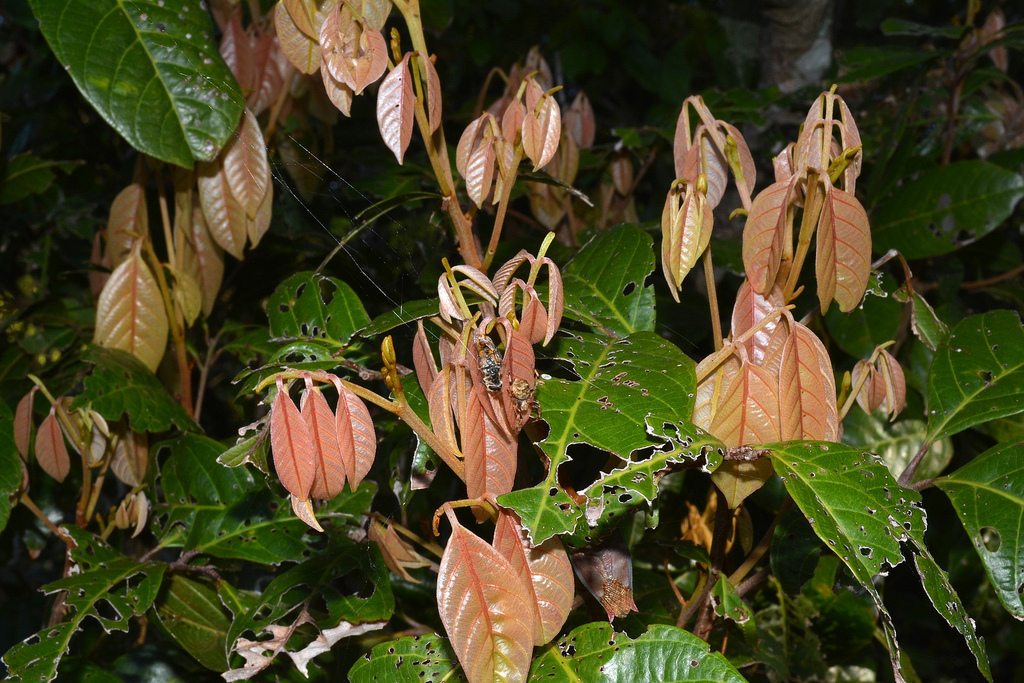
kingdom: Plantae
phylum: Tracheophyta
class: Magnoliopsida
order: Sapindales
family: Sapindaceae
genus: Arytera
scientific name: Arytera divaricata
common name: Coogera
